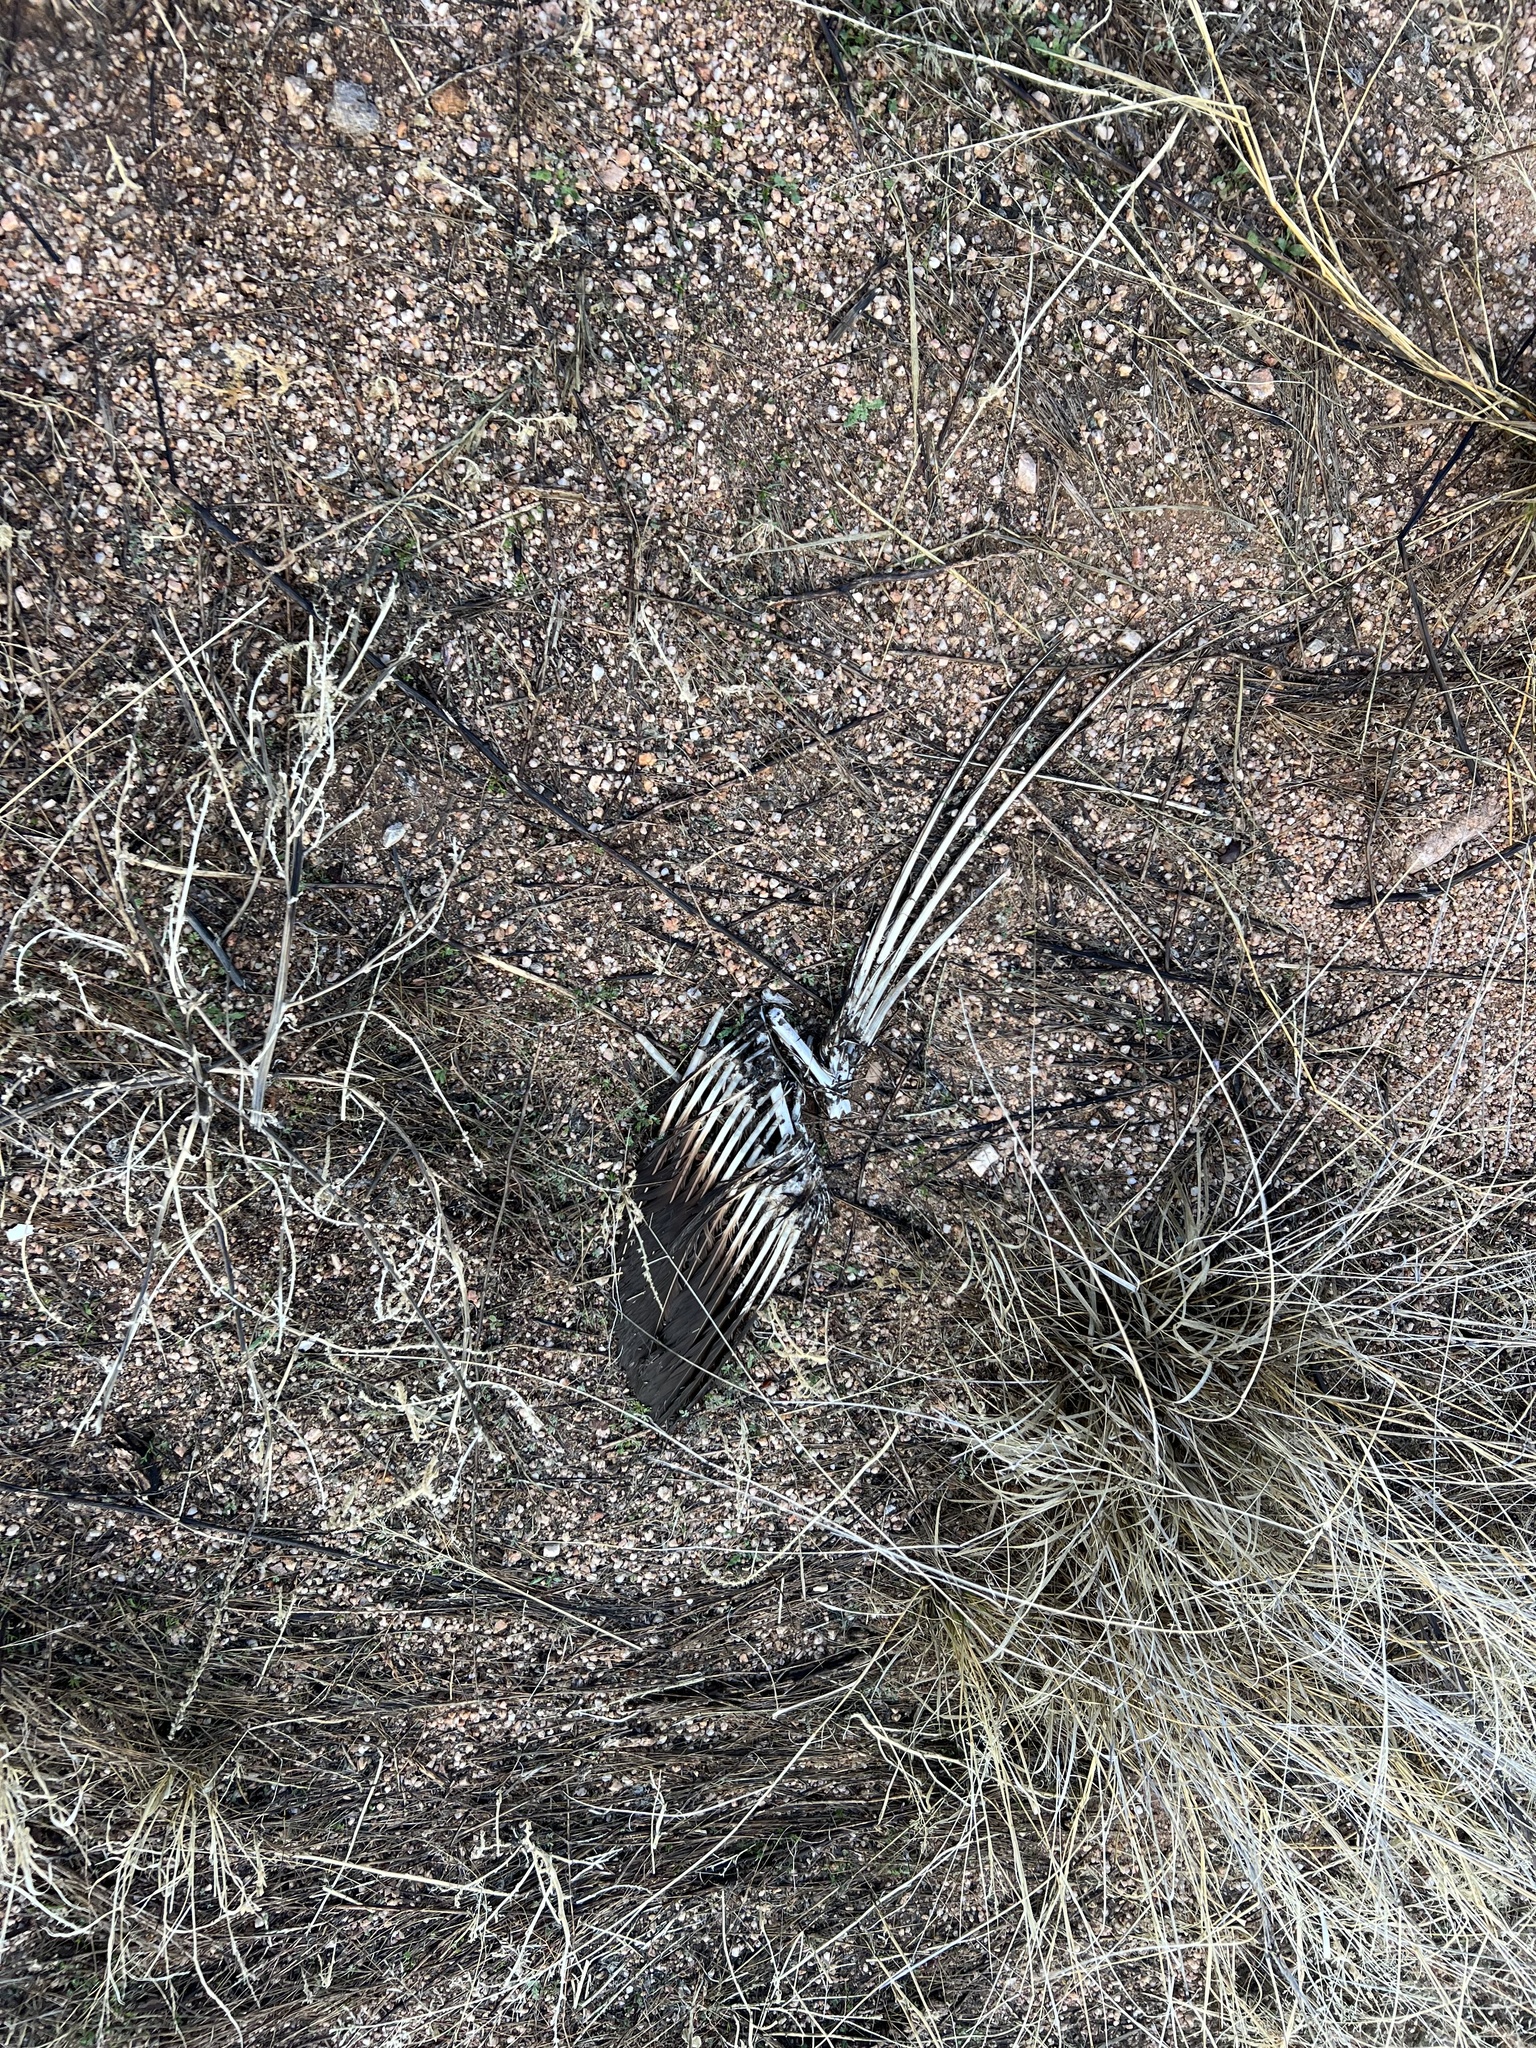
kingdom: Animalia
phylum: Chordata
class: Aves
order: Accipitriformes
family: Cathartidae
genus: Cathartes
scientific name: Cathartes aura
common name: Turkey vulture
